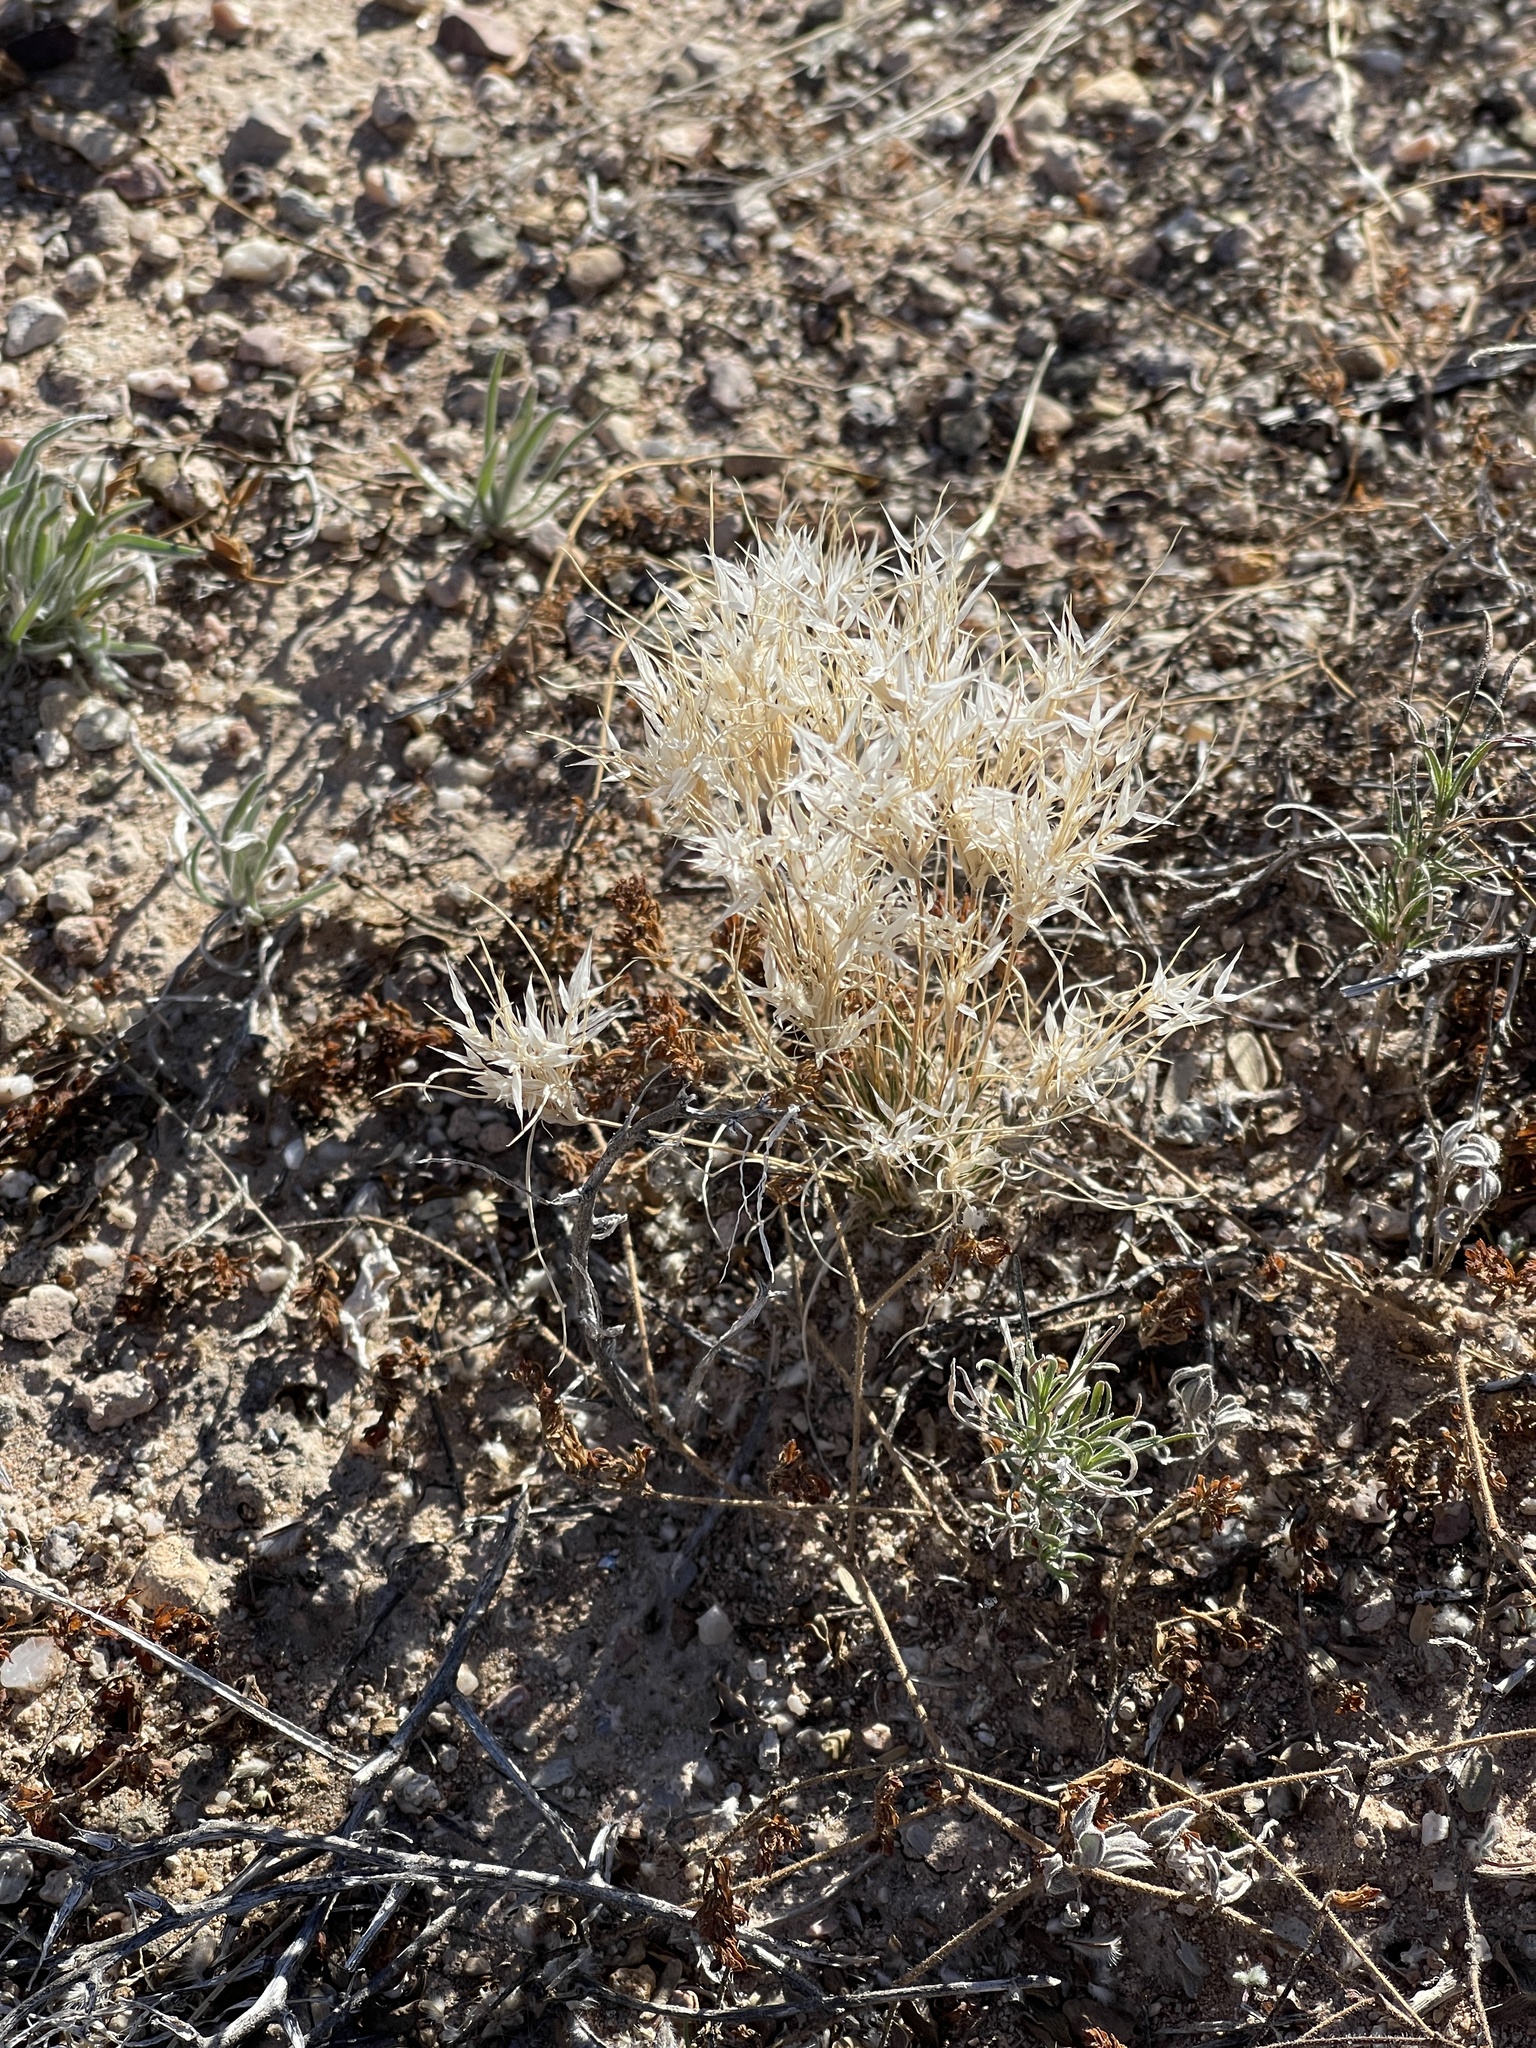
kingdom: Plantae
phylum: Tracheophyta
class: Liliopsida
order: Poales
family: Poaceae
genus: Dasyochloa
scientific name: Dasyochloa pulchella
